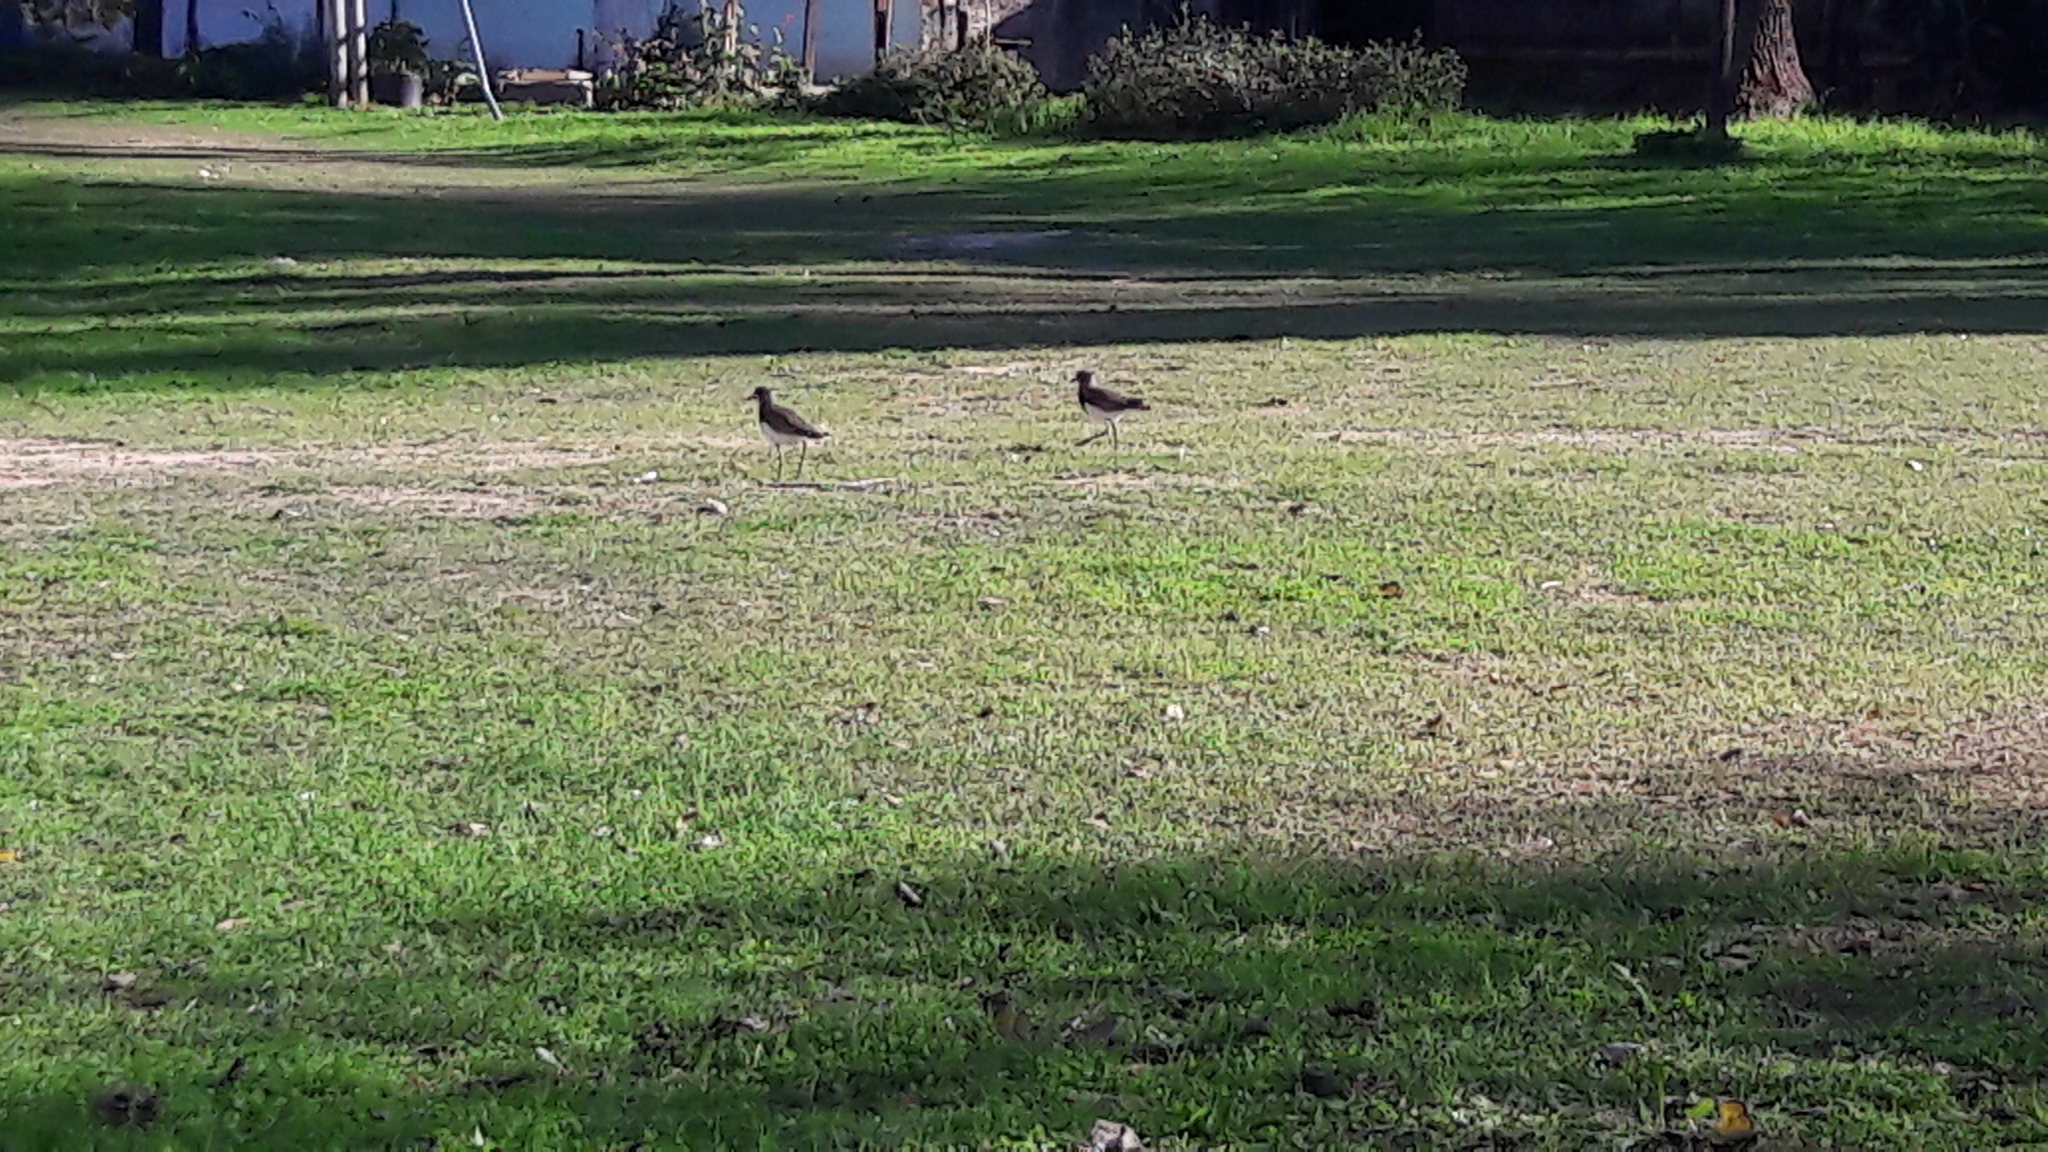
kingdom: Animalia
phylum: Chordata
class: Aves
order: Charadriiformes
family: Charadriidae
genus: Vanellus
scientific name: Vanellus chilensis
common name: Southern lapwing
